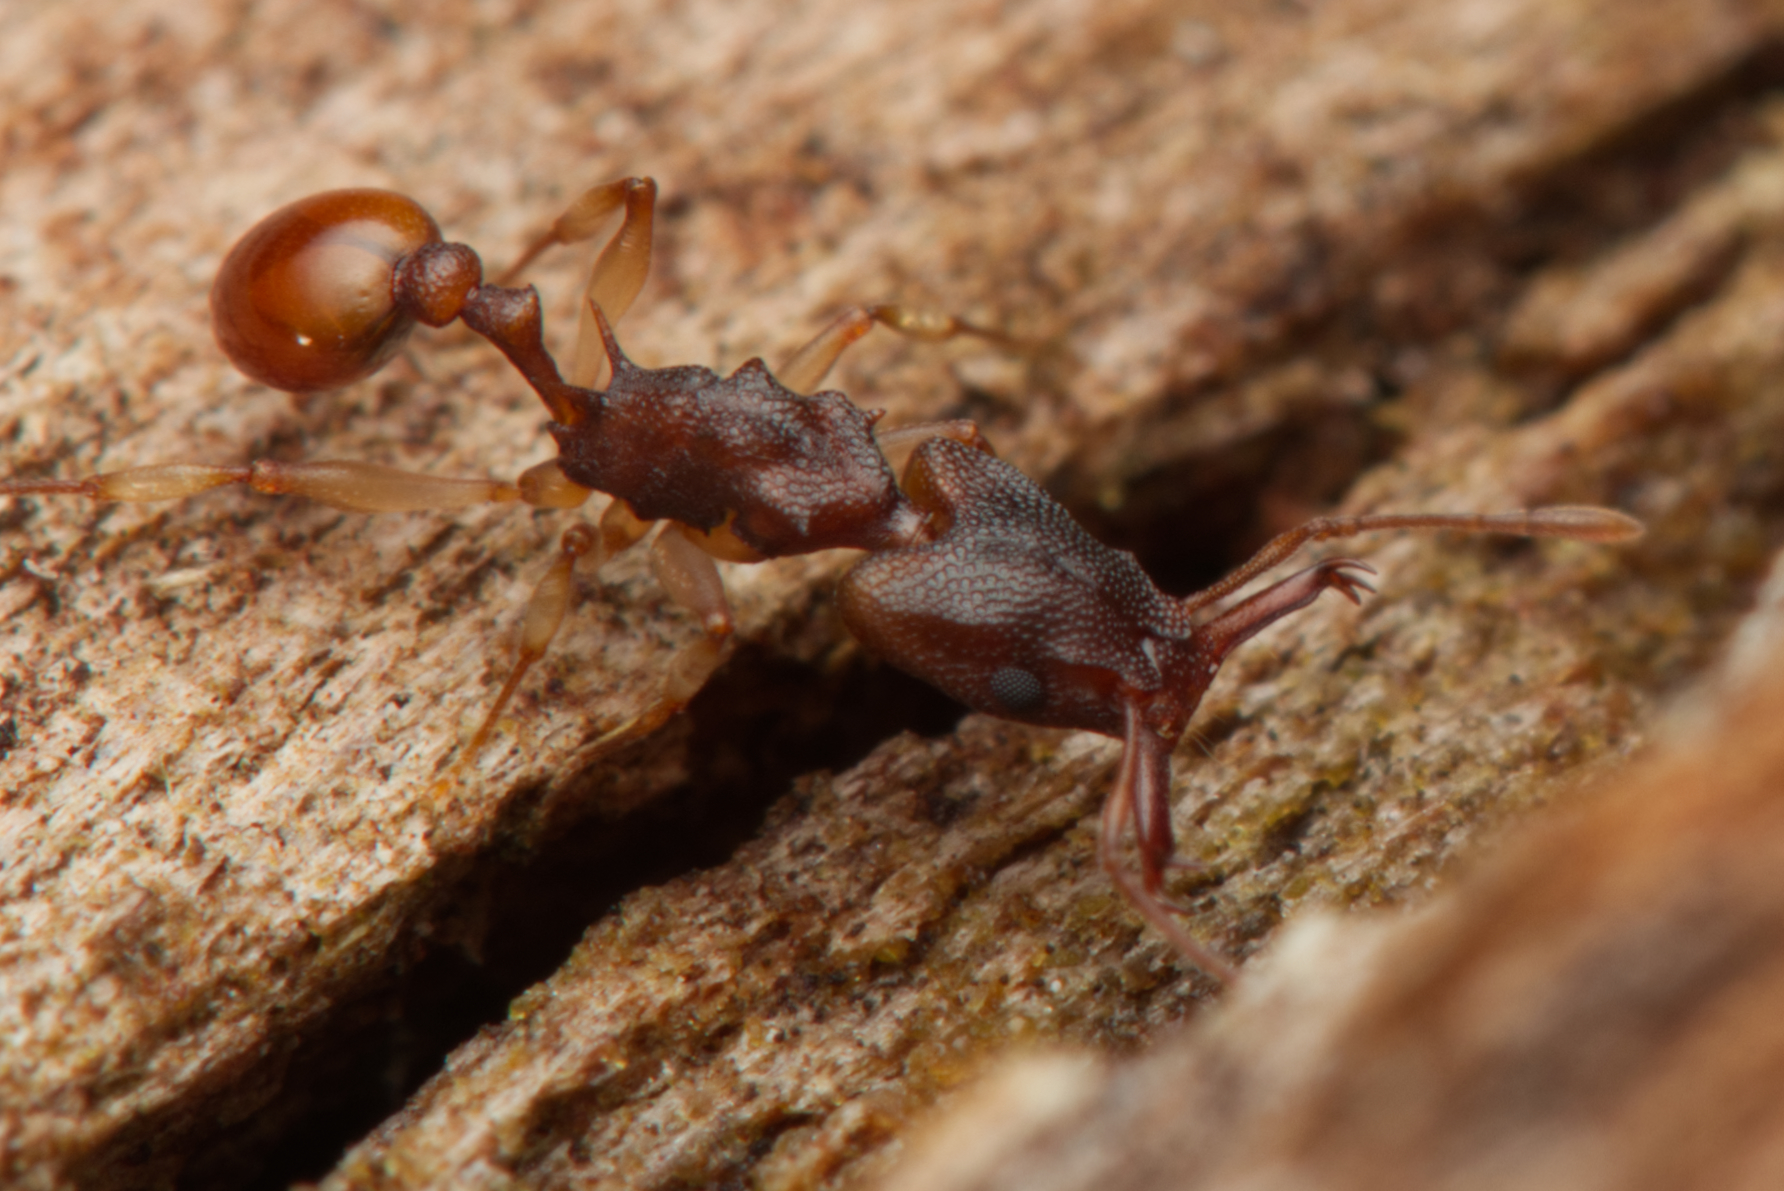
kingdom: Animalia
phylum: Arthropoda
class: Insecta
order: Hymenoptera
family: Formicidae
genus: Orectognathus
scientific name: Orectognathus mjobergi
